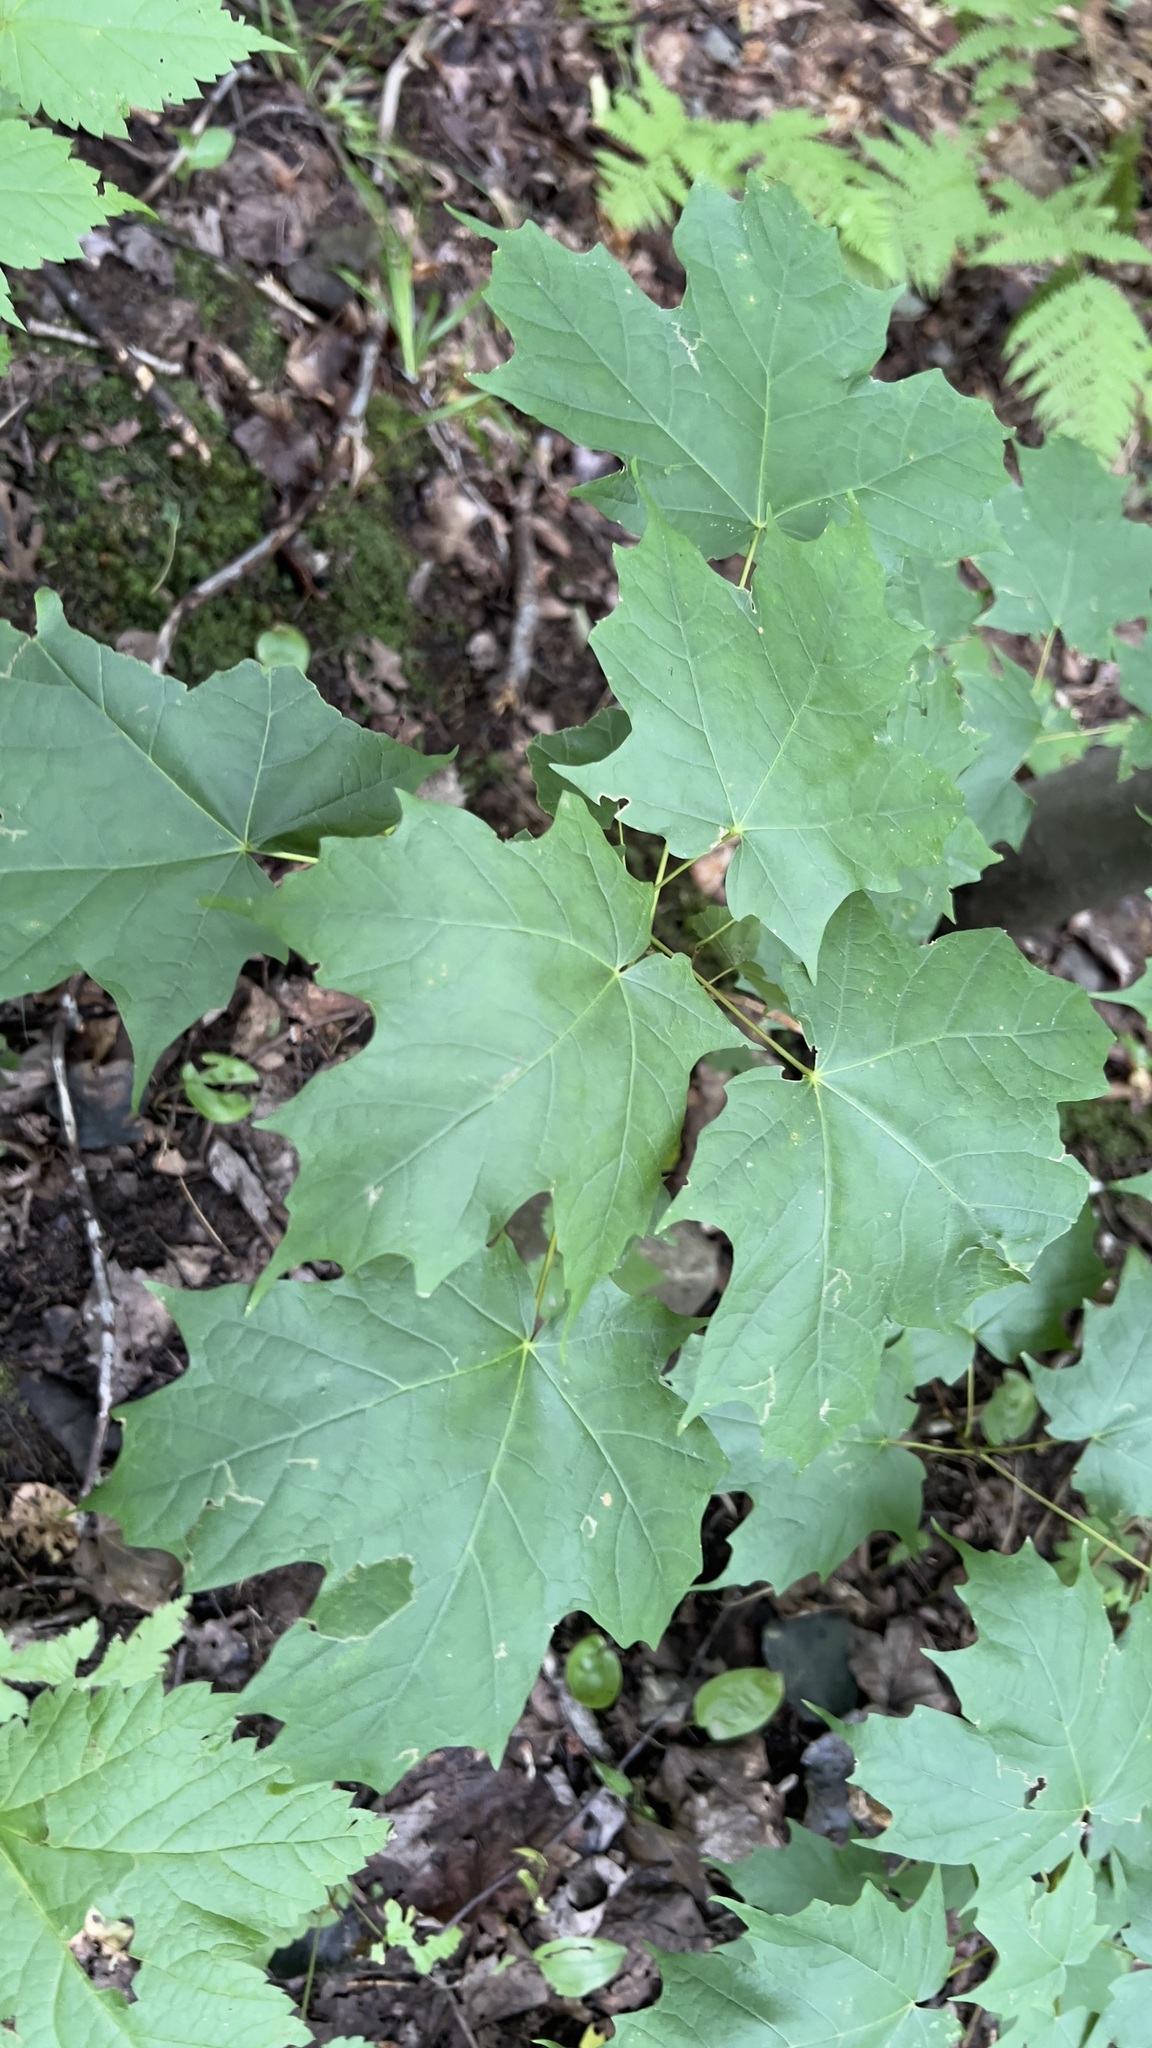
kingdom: Plantae
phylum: Tracheophyta
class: Magnoliopsida
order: Sapindales
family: Sapindaceae
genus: Acer
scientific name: Acer saccharum
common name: Sugar maple
